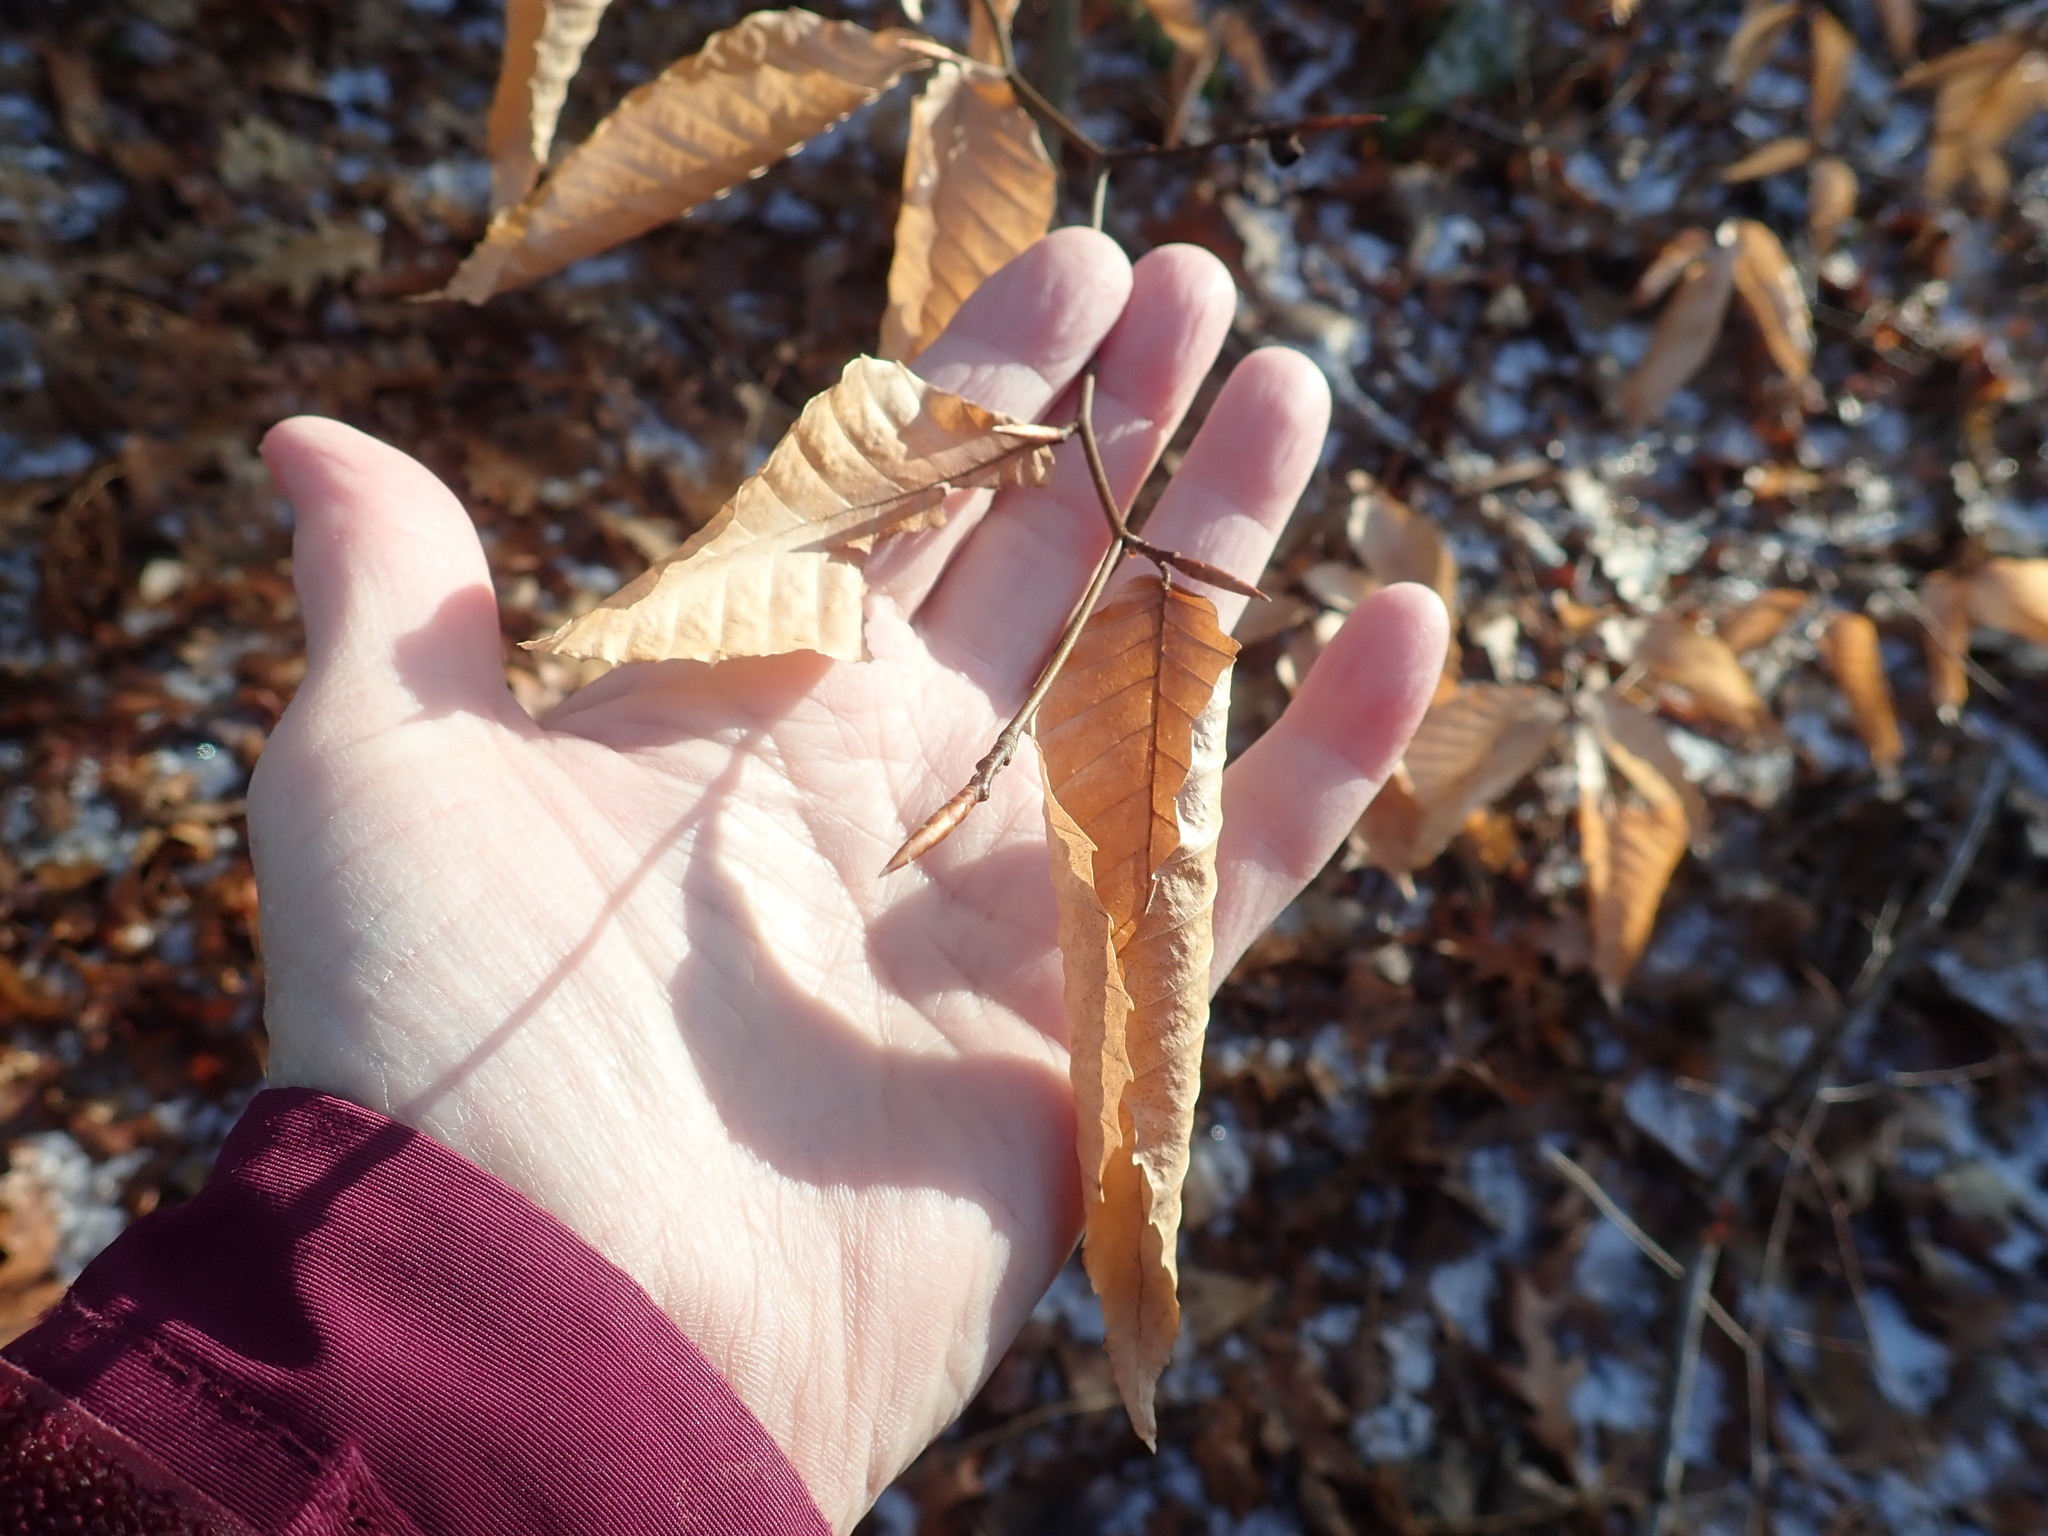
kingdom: Plantae
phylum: Tracheophyta
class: Magnoliopsida
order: Fagales
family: Fagaceae
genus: Fagus
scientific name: Fagus grandifolia
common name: American beech
